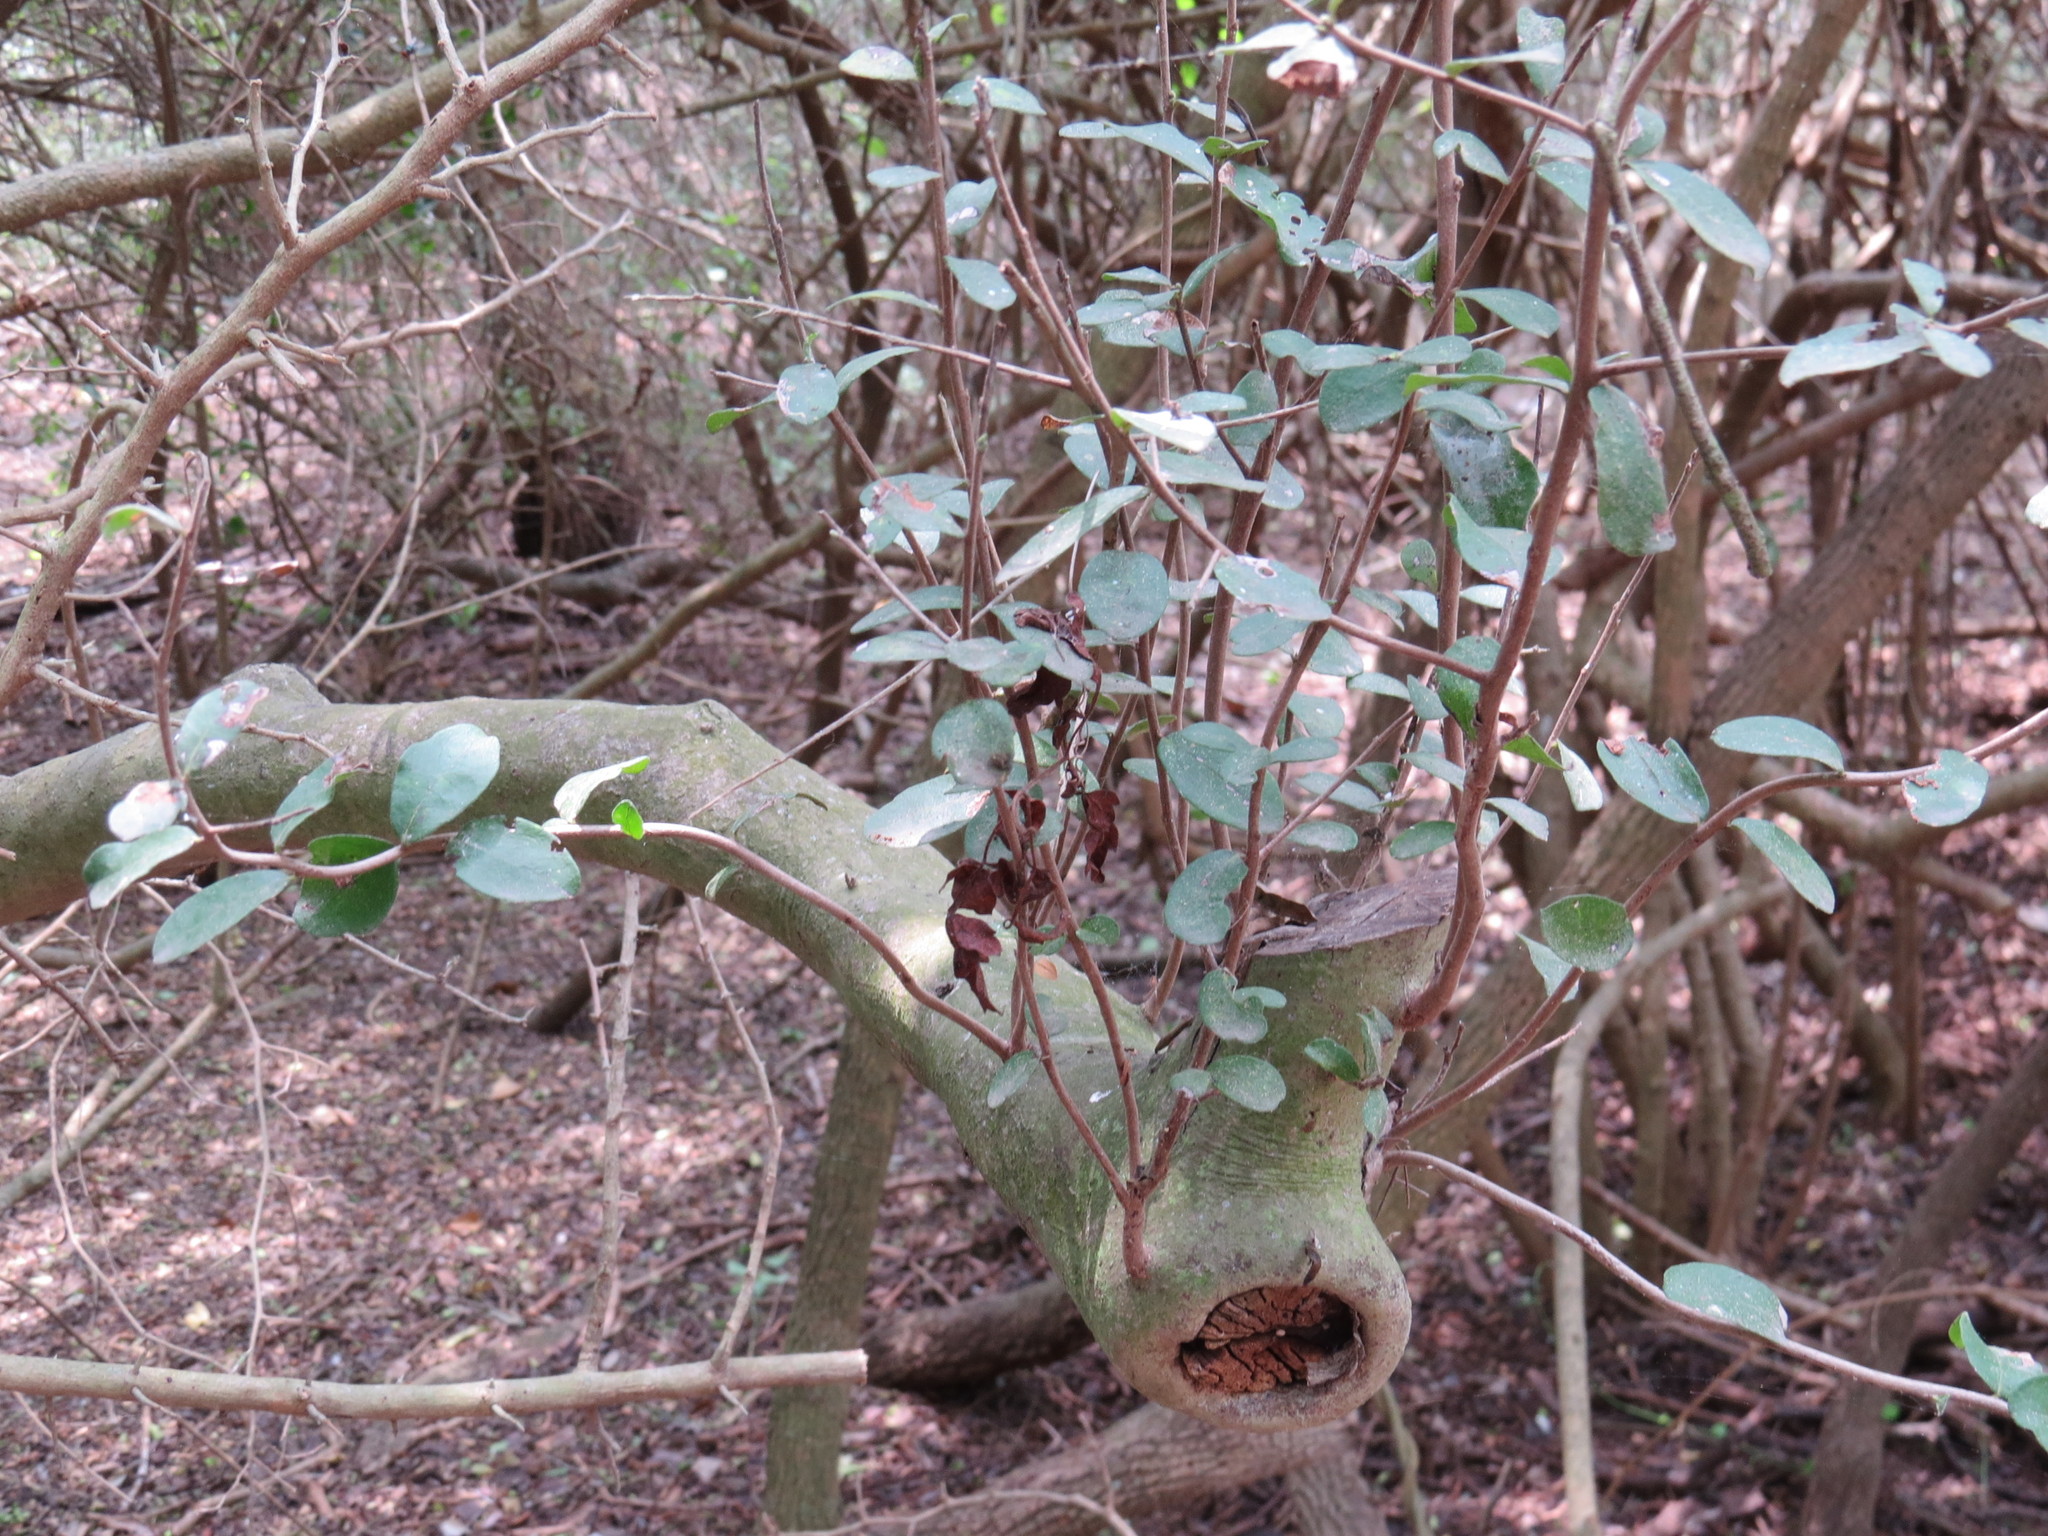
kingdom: Plantae
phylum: Tracheophyta
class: Magnoliopsida
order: Ericales
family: Ebenaceae
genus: Diospyros
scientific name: Diospyros texana
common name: Texas persimmon
